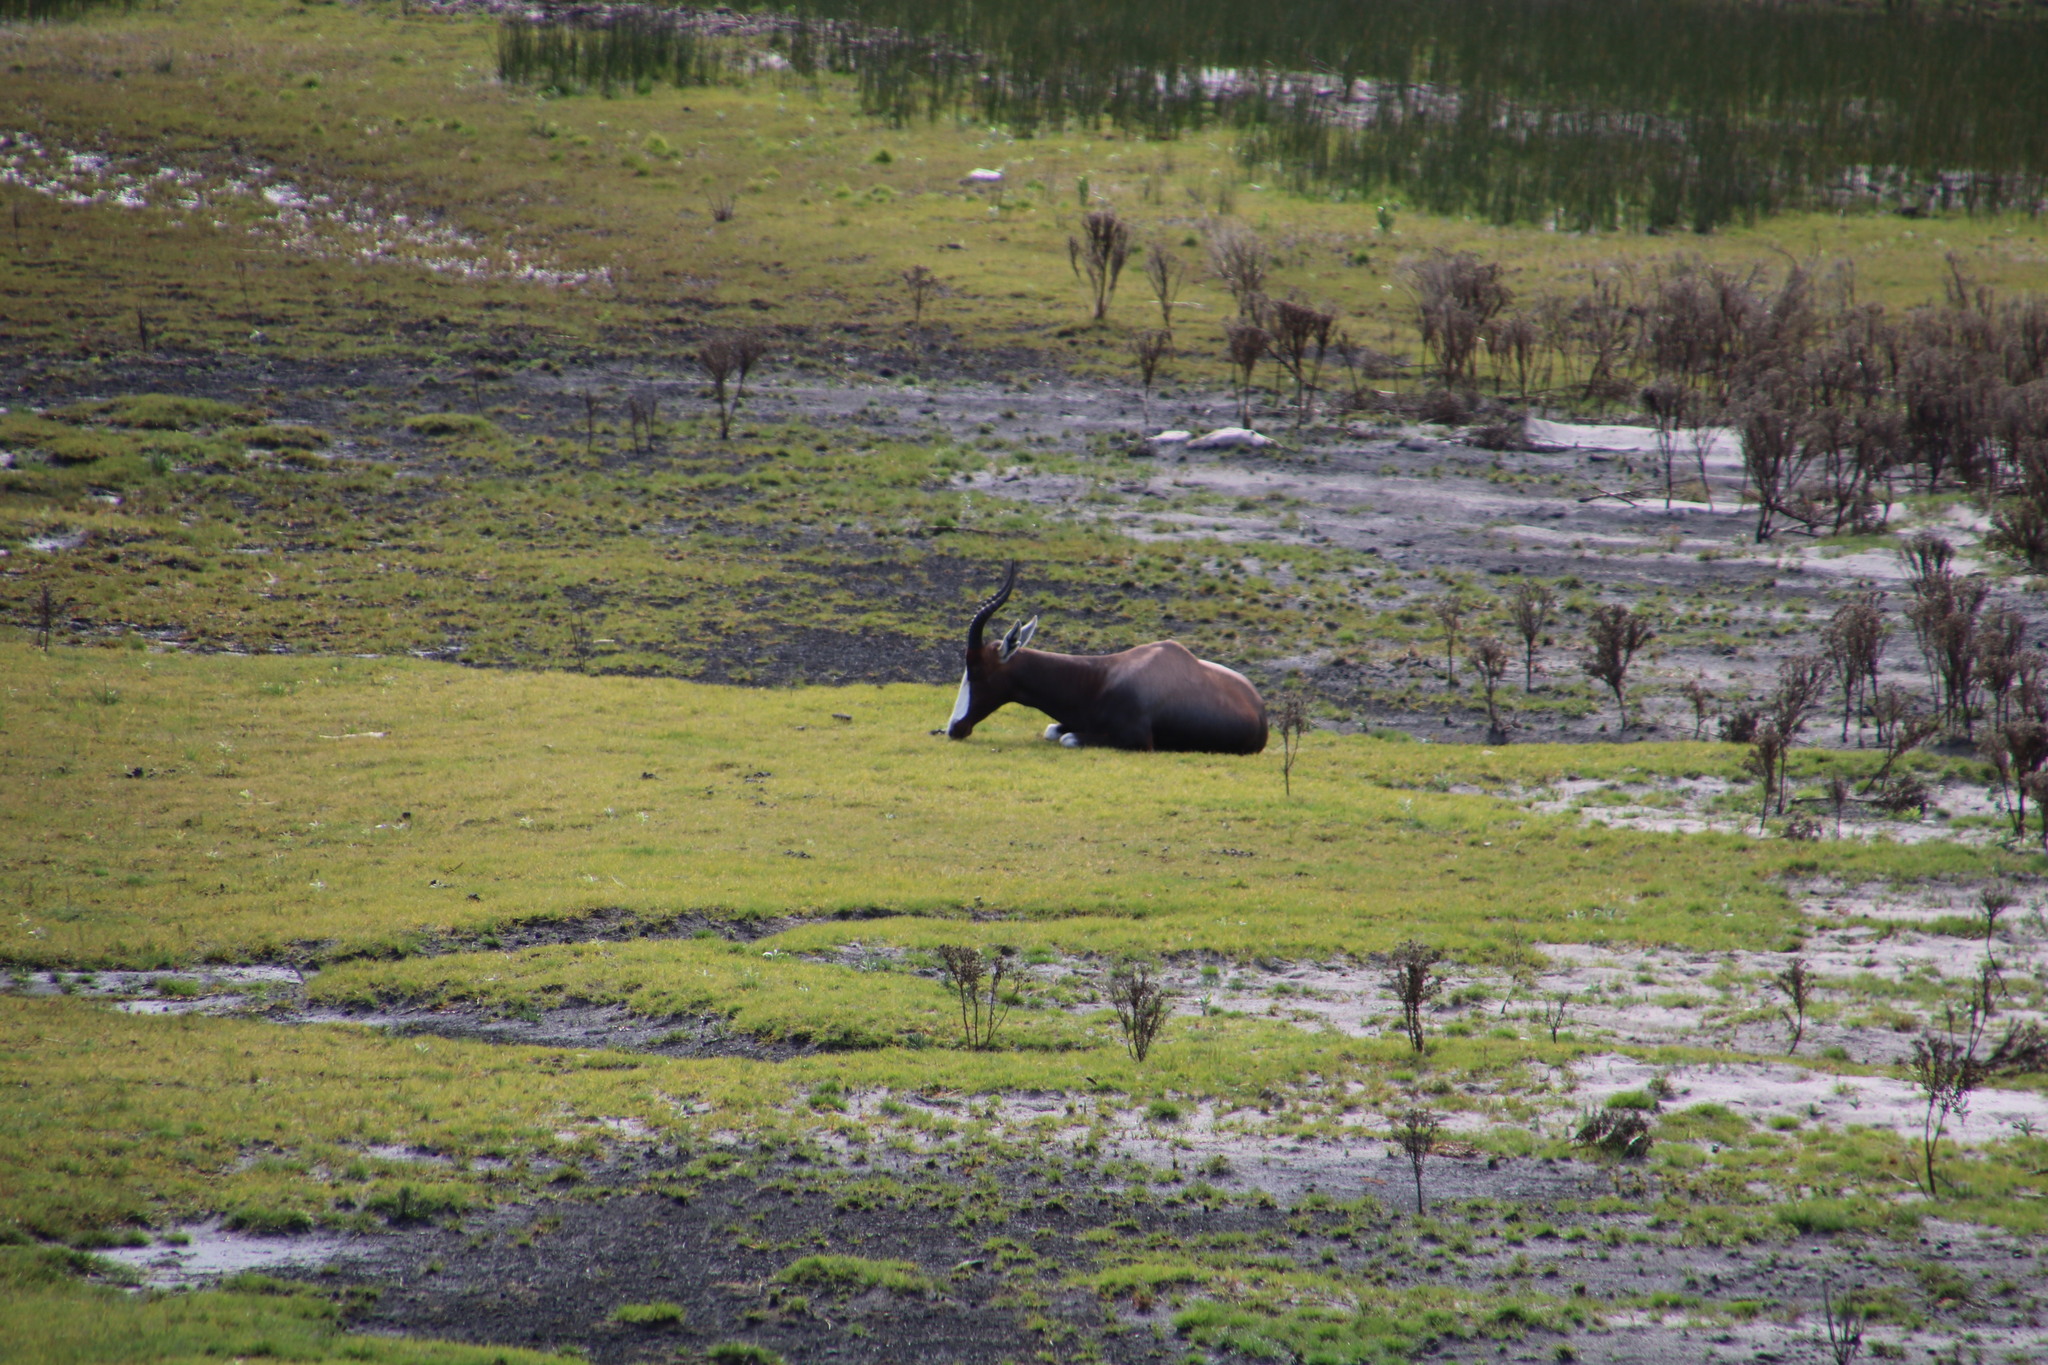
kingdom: Animalia
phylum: Chordata
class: Mammalia
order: Artiodactyla
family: Bovidae
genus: Damaliscus
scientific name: Damaliscus pygargus
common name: Bontebok
